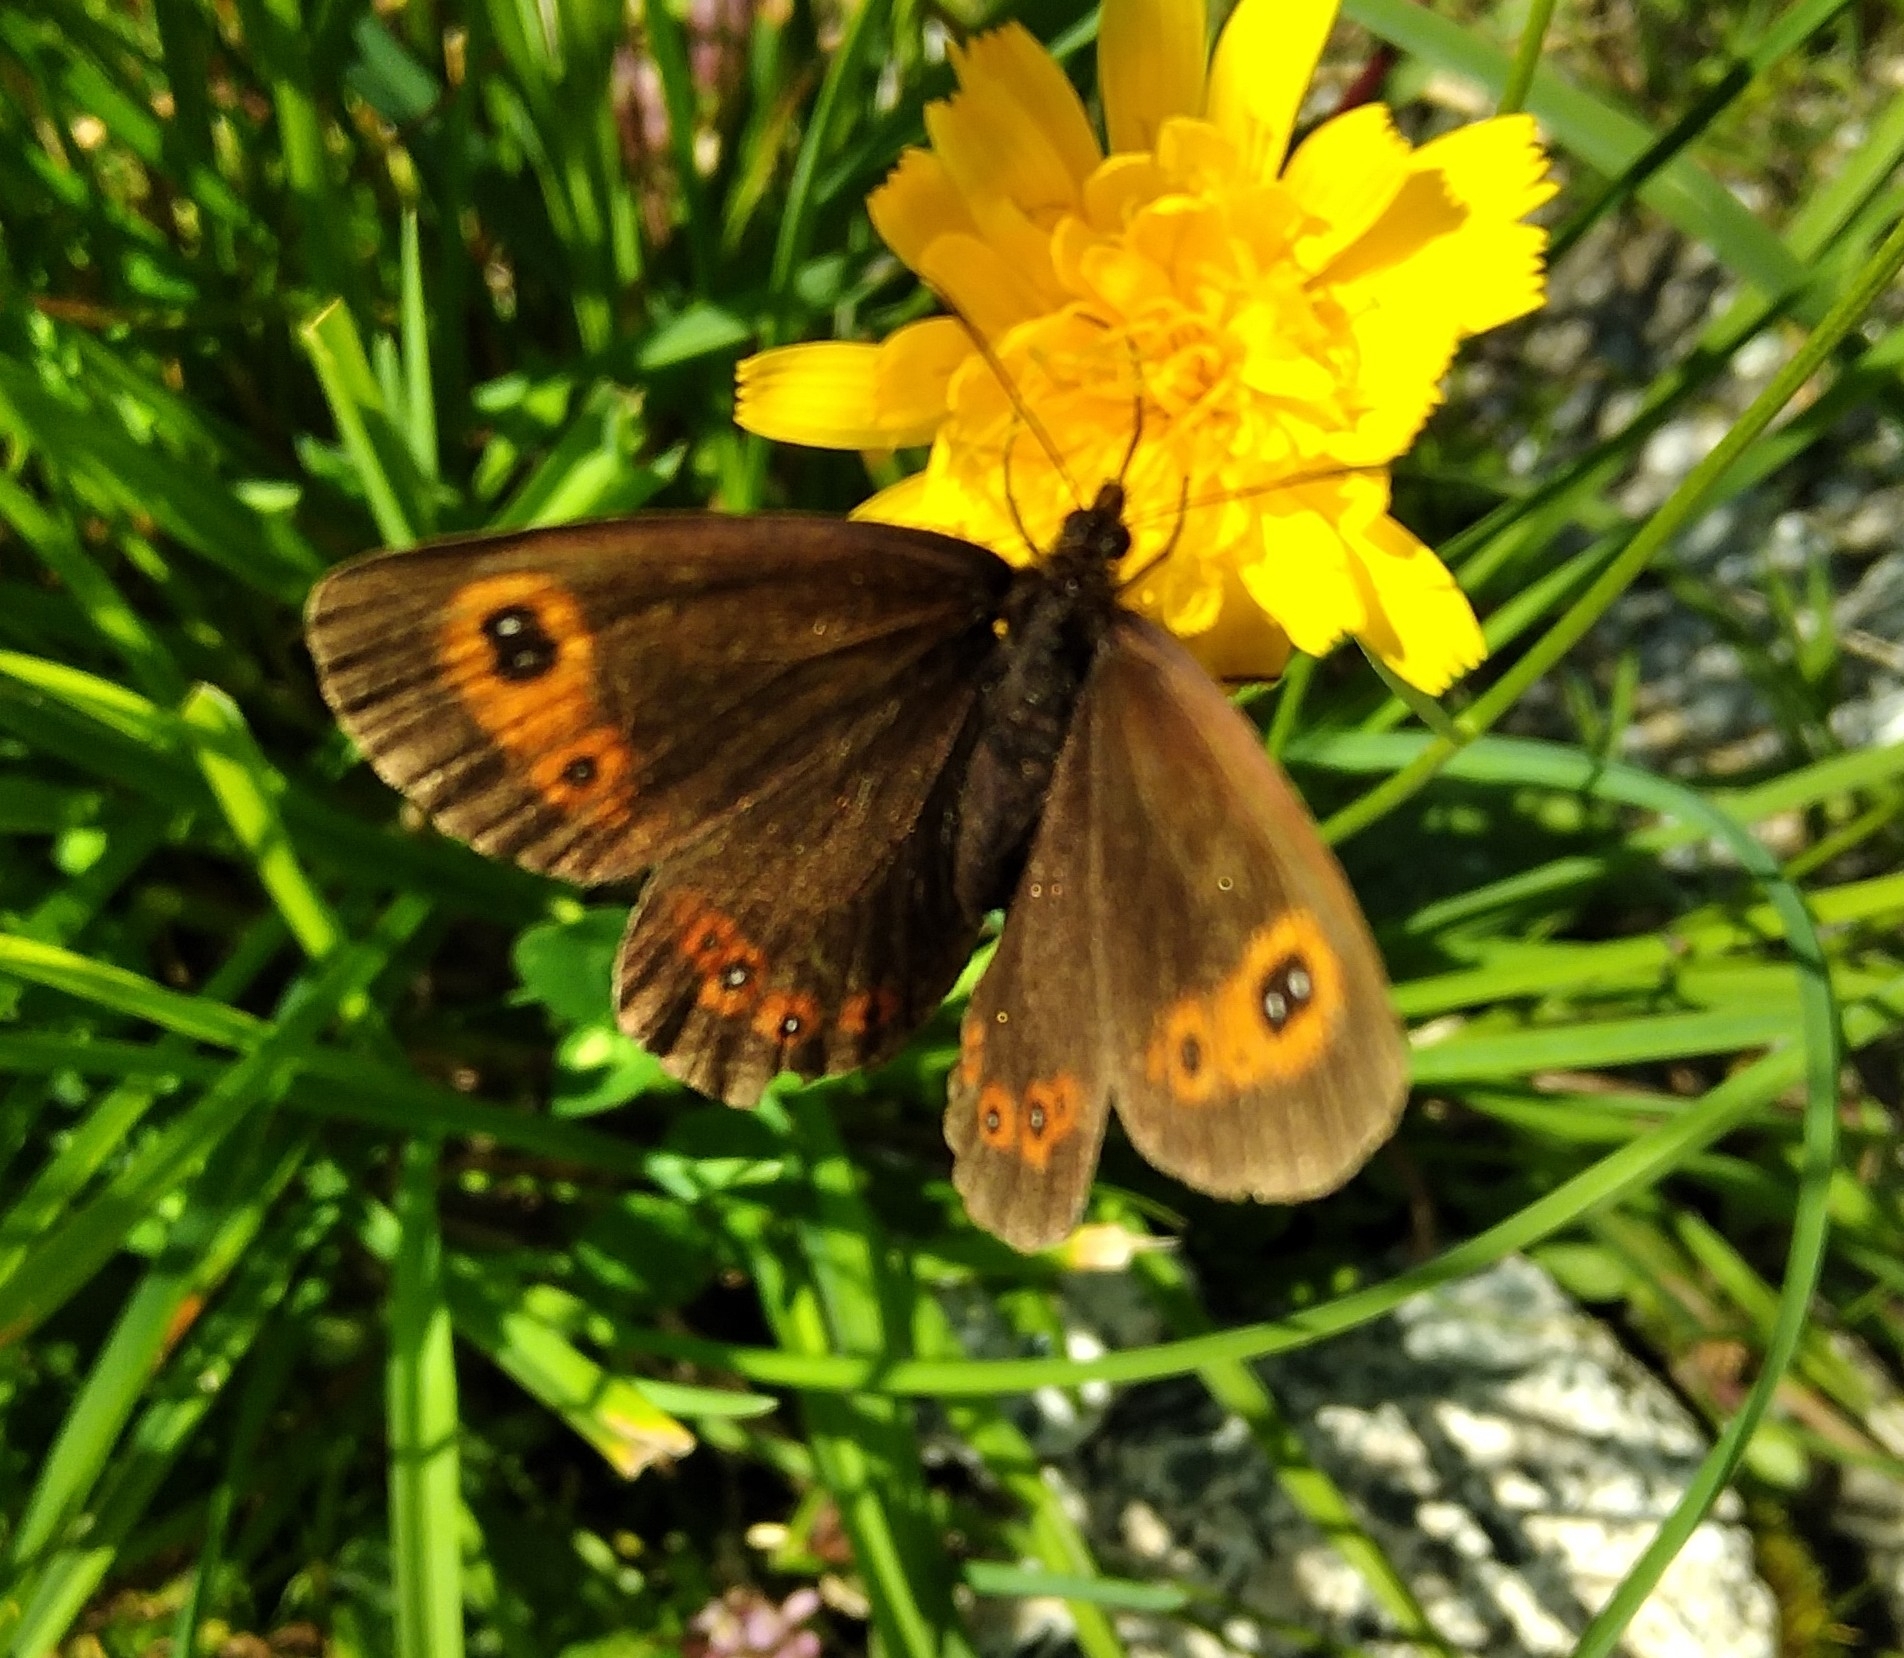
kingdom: Animalia
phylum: Arthropoda
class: Insecta
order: Lepidoptera
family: Nymphalidae
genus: Erebia
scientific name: Erebia aethiops
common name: Scotch argus
